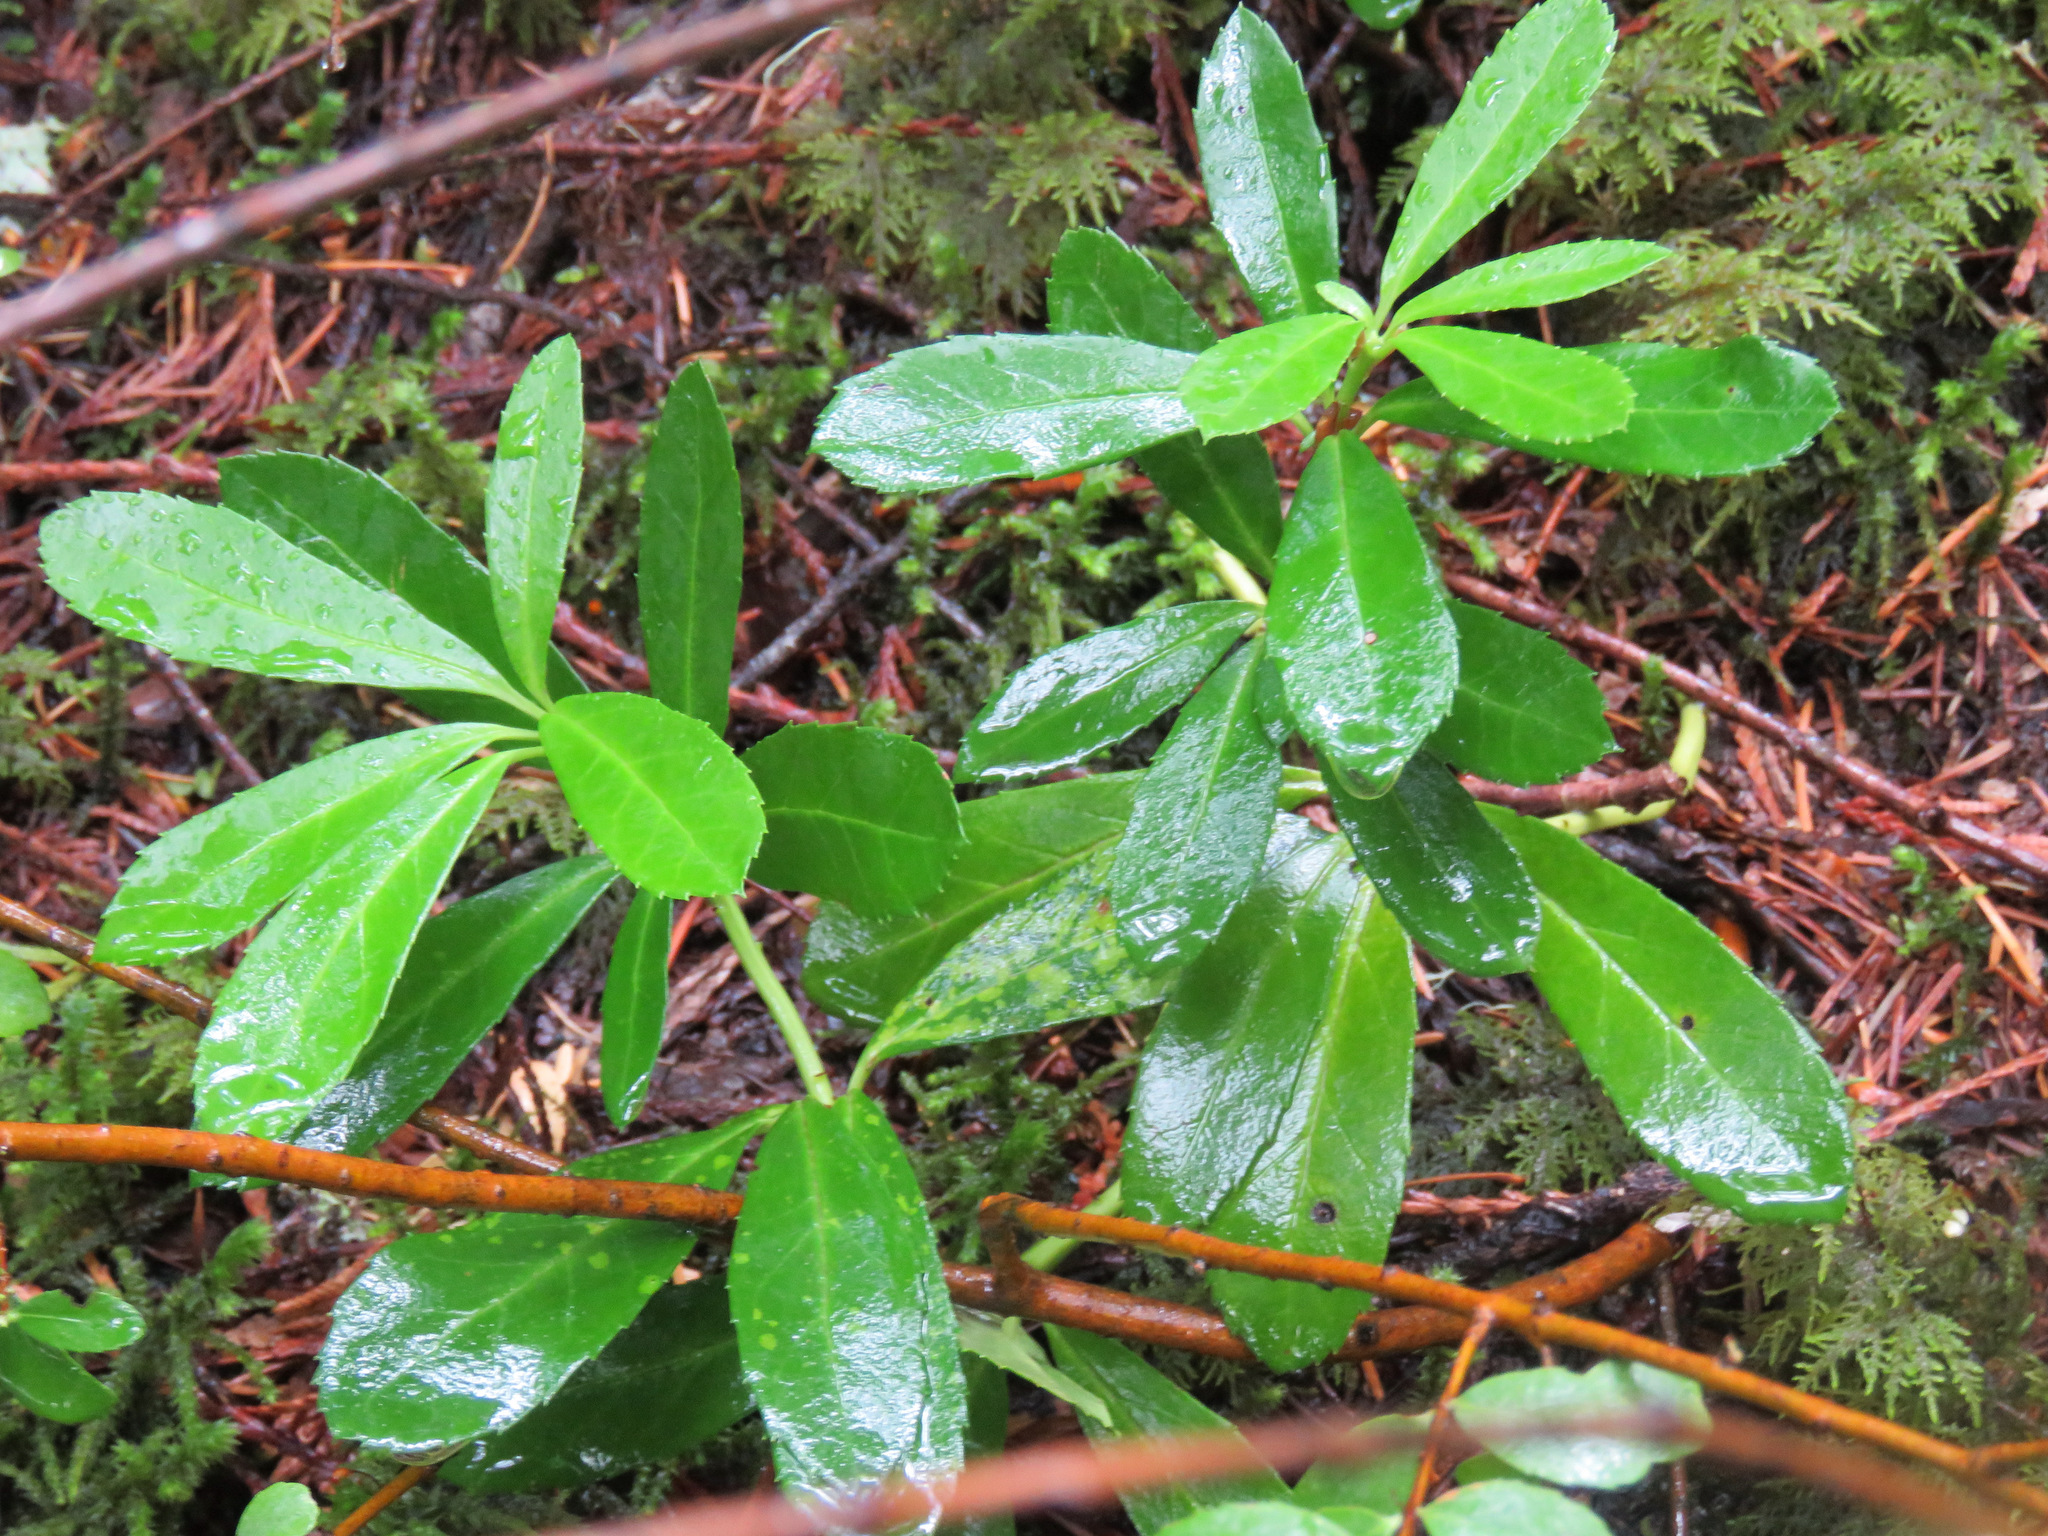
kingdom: Plantae
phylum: Tracheophyta
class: Magnoliopsida
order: Ericales
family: Ericaceae
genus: Chimaphila
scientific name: Chimaphila umbellata
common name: Pipsissewa
